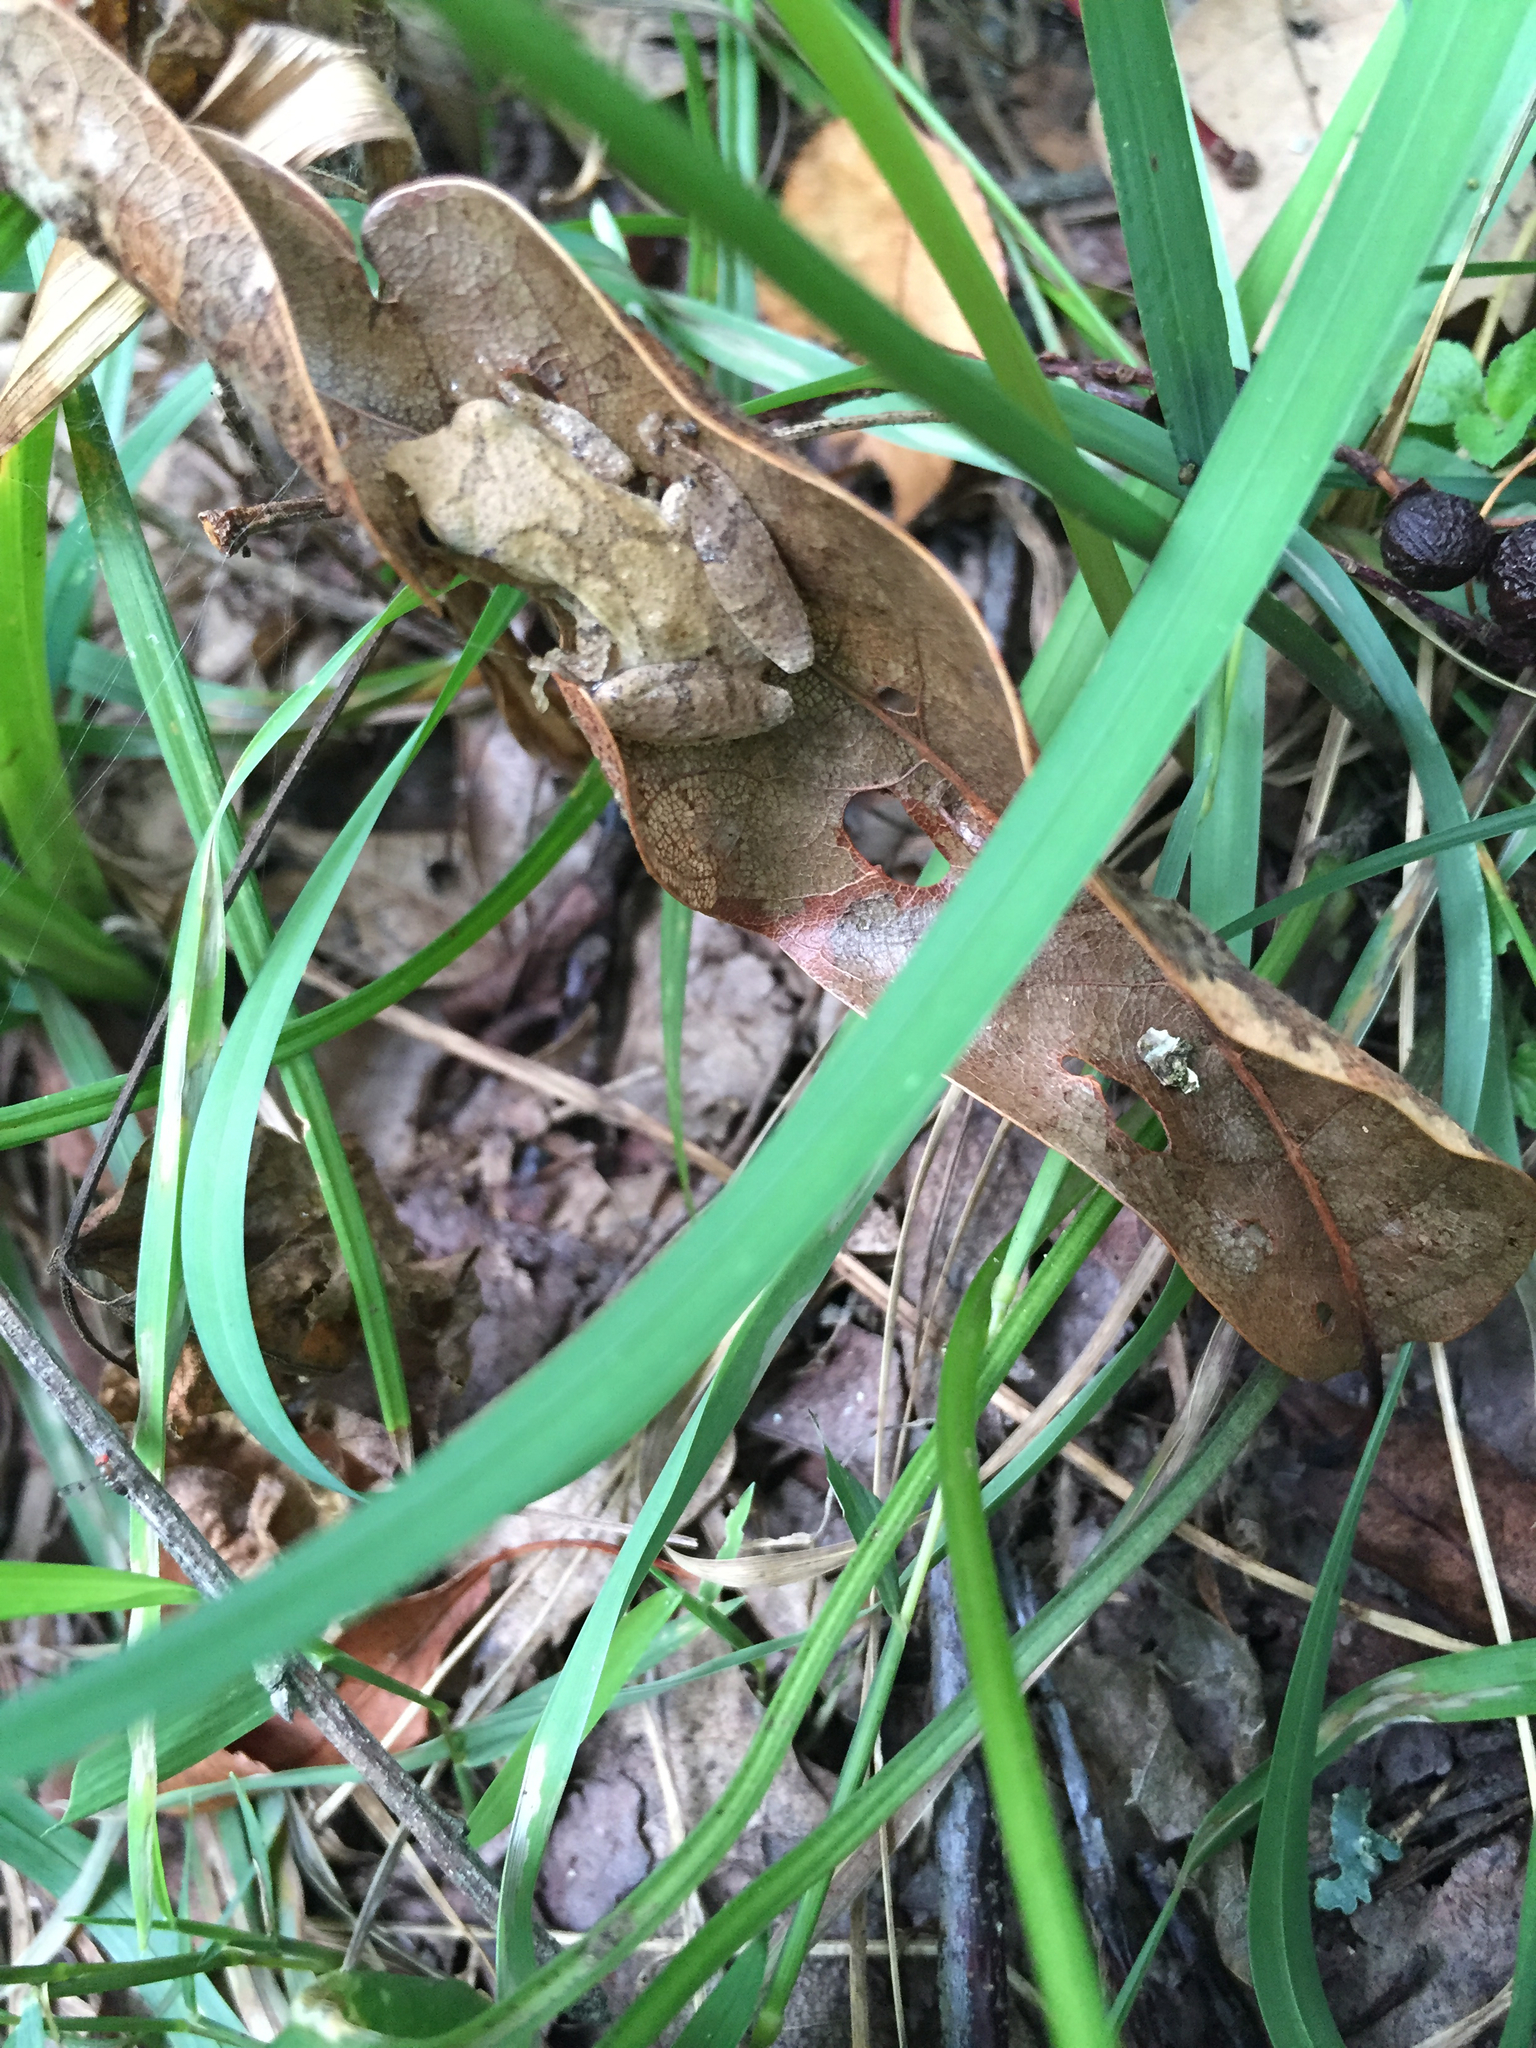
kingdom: Animalia
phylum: Chordata
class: Amphibia
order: Anura
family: Hylidae
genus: Pseudacris
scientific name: Pseudacris crucifer
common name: Spring peeper
